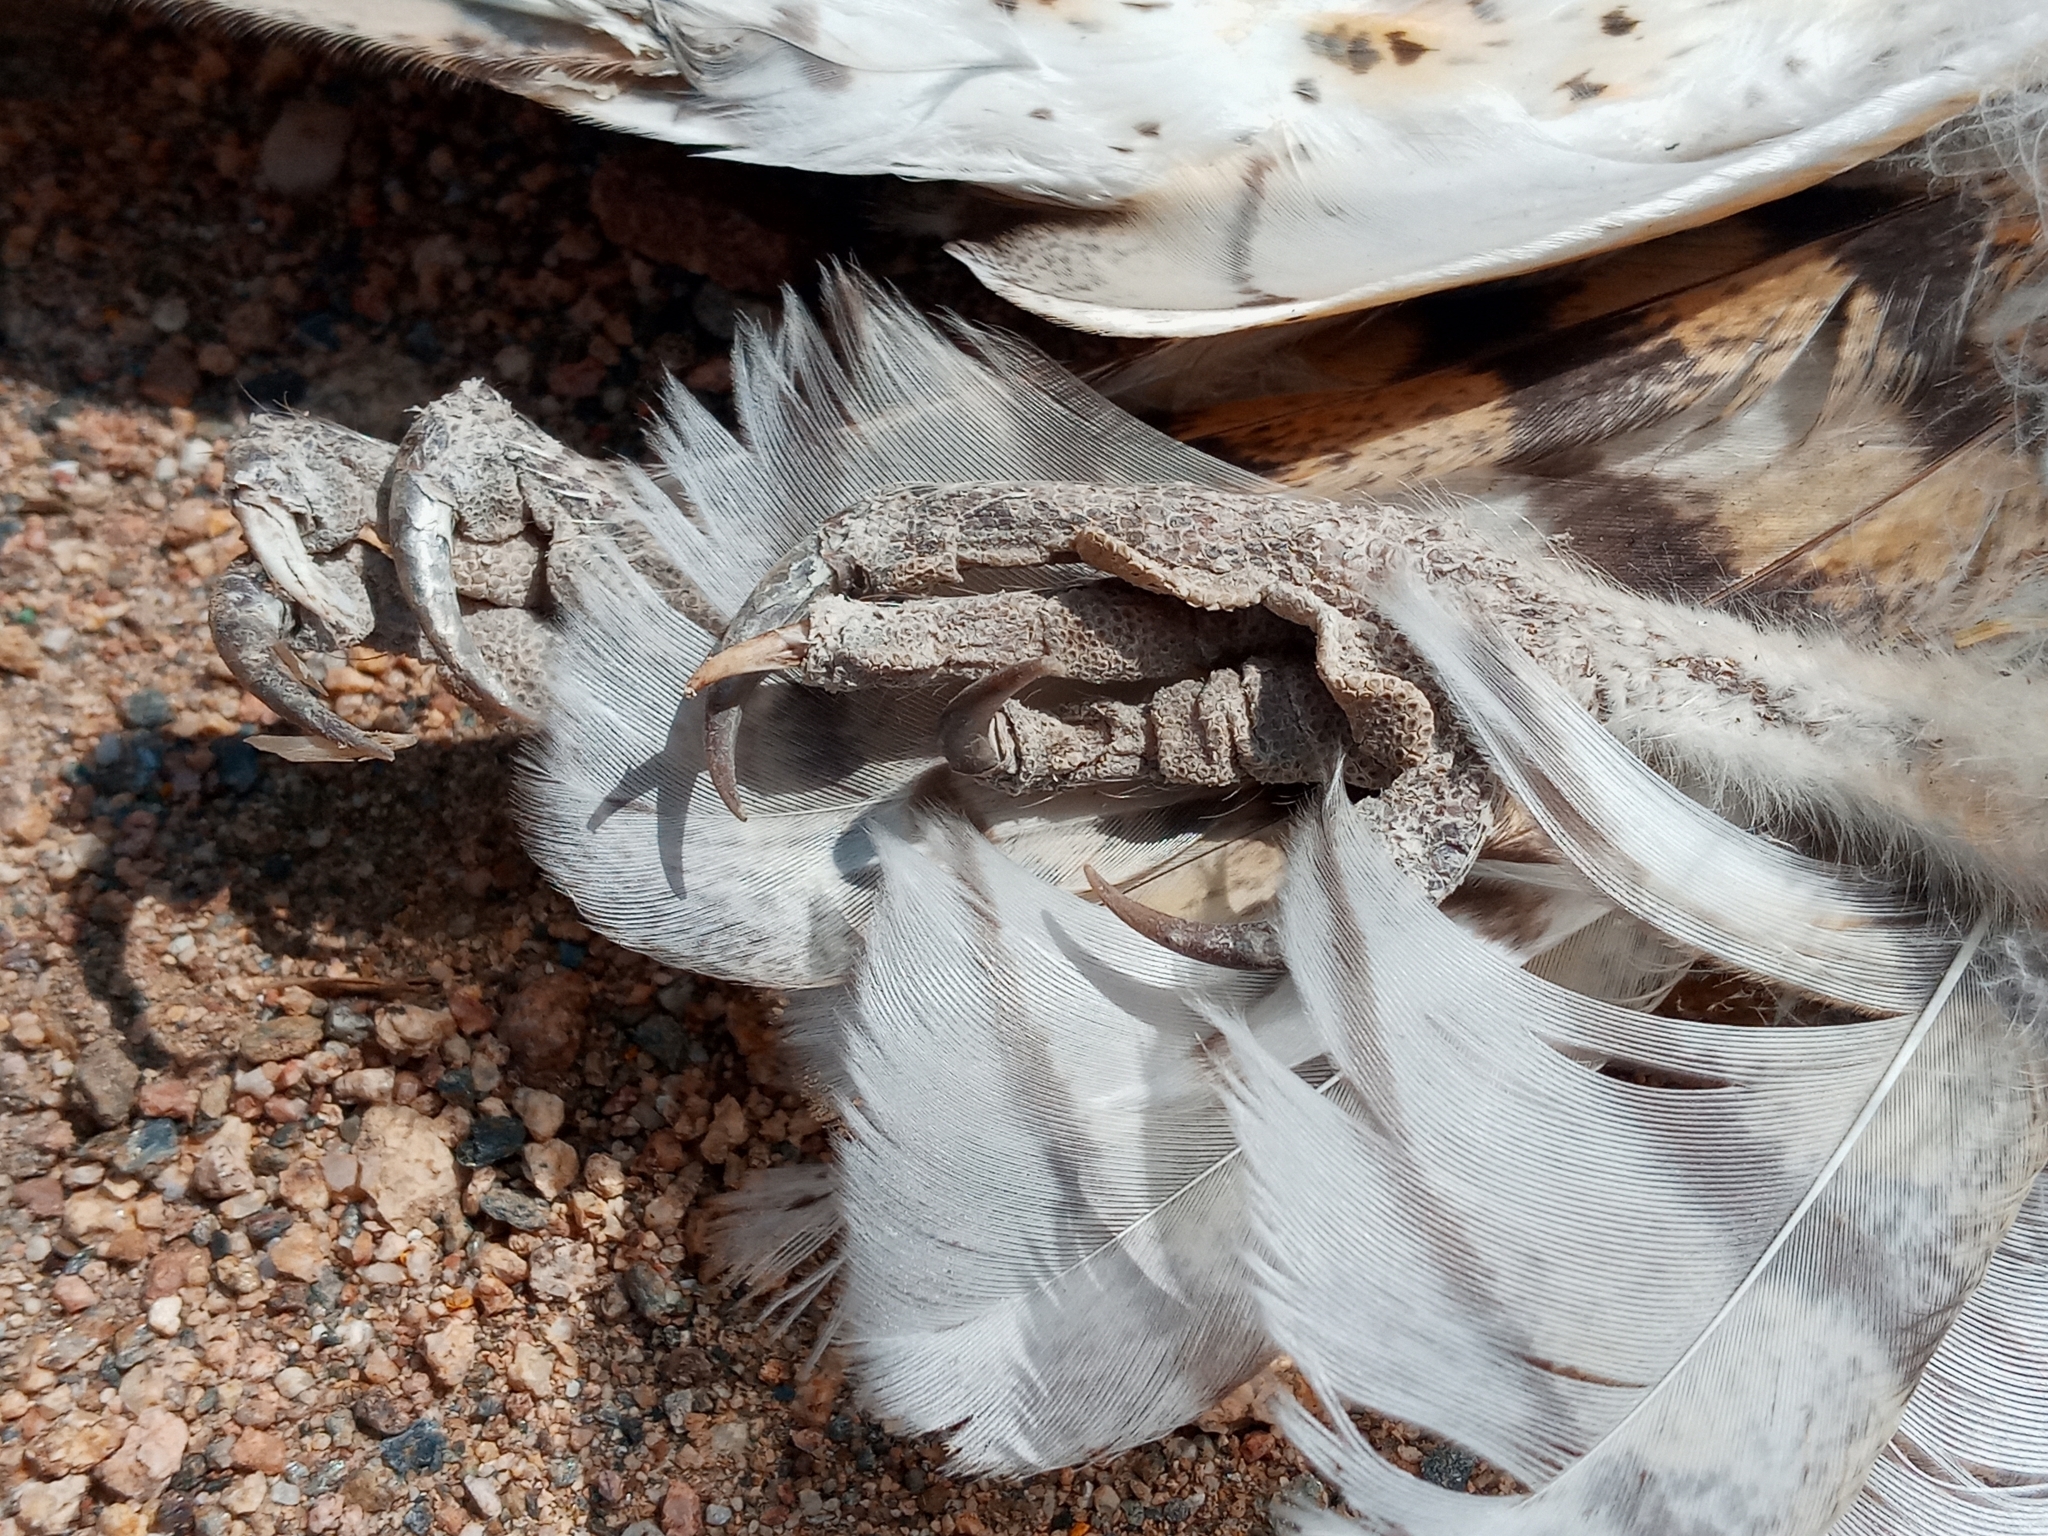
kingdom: Animalia
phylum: Chordata
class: Aves
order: Strigiformes
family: Tytonidae
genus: Tyto
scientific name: Tyto alba
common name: Barn owl
